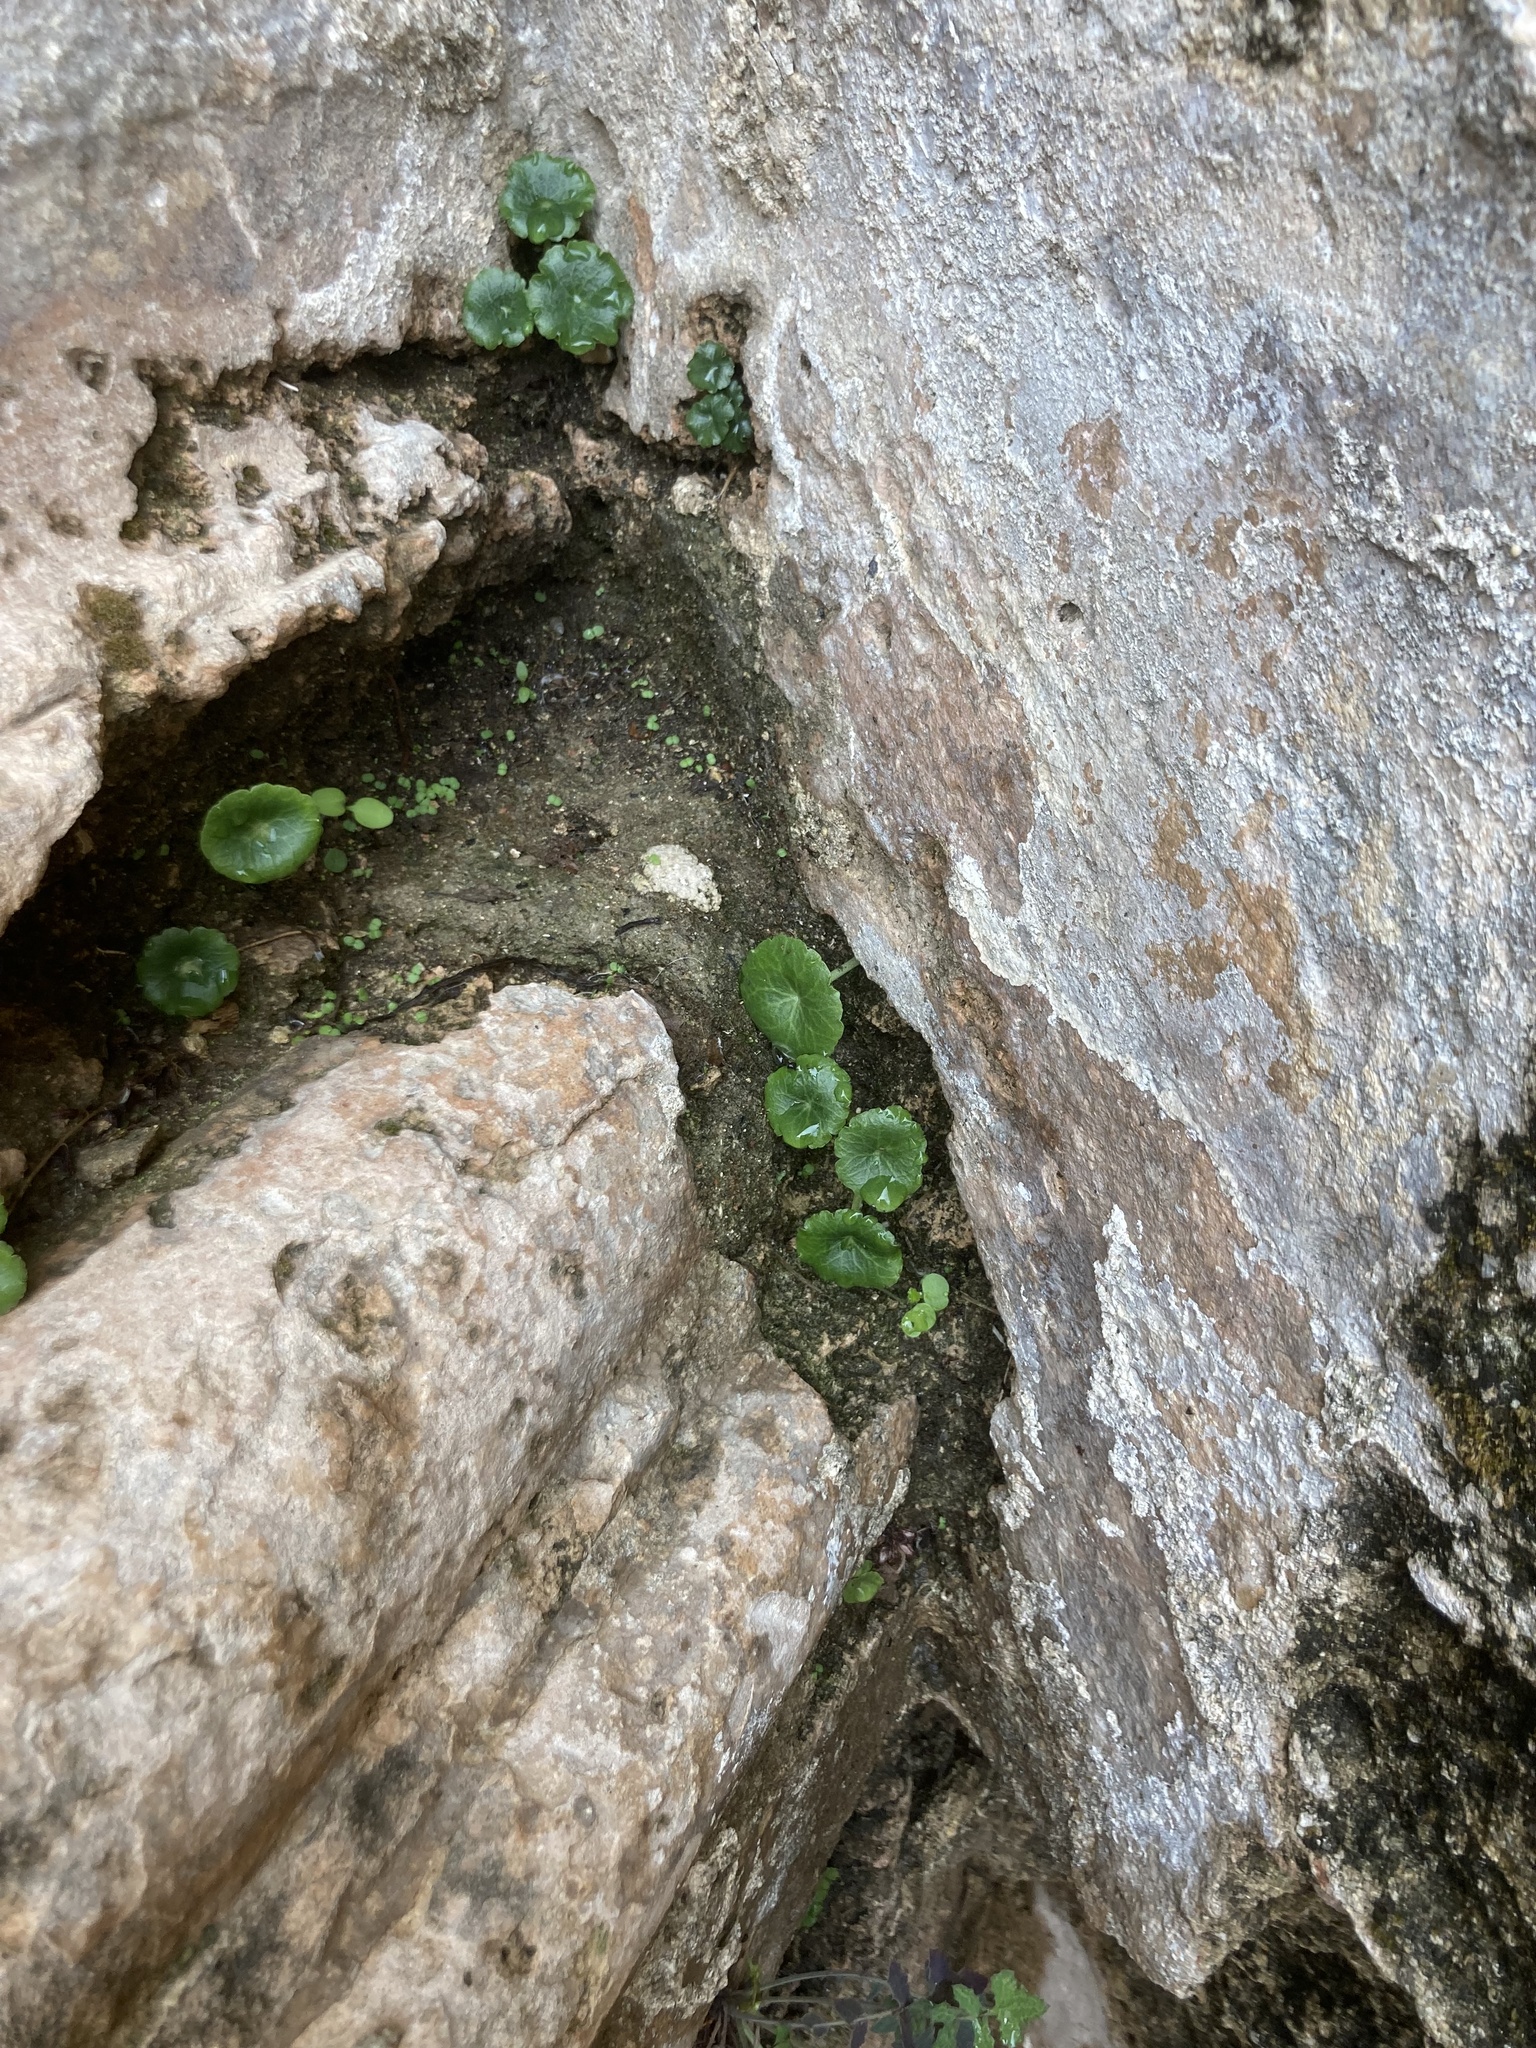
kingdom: Plantae
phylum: Tracheophyta
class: Magnoliopsida
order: Saxifragales
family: Crassulaceae
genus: Umbilicus
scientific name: Umbilicus rupestris
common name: Navelwort
